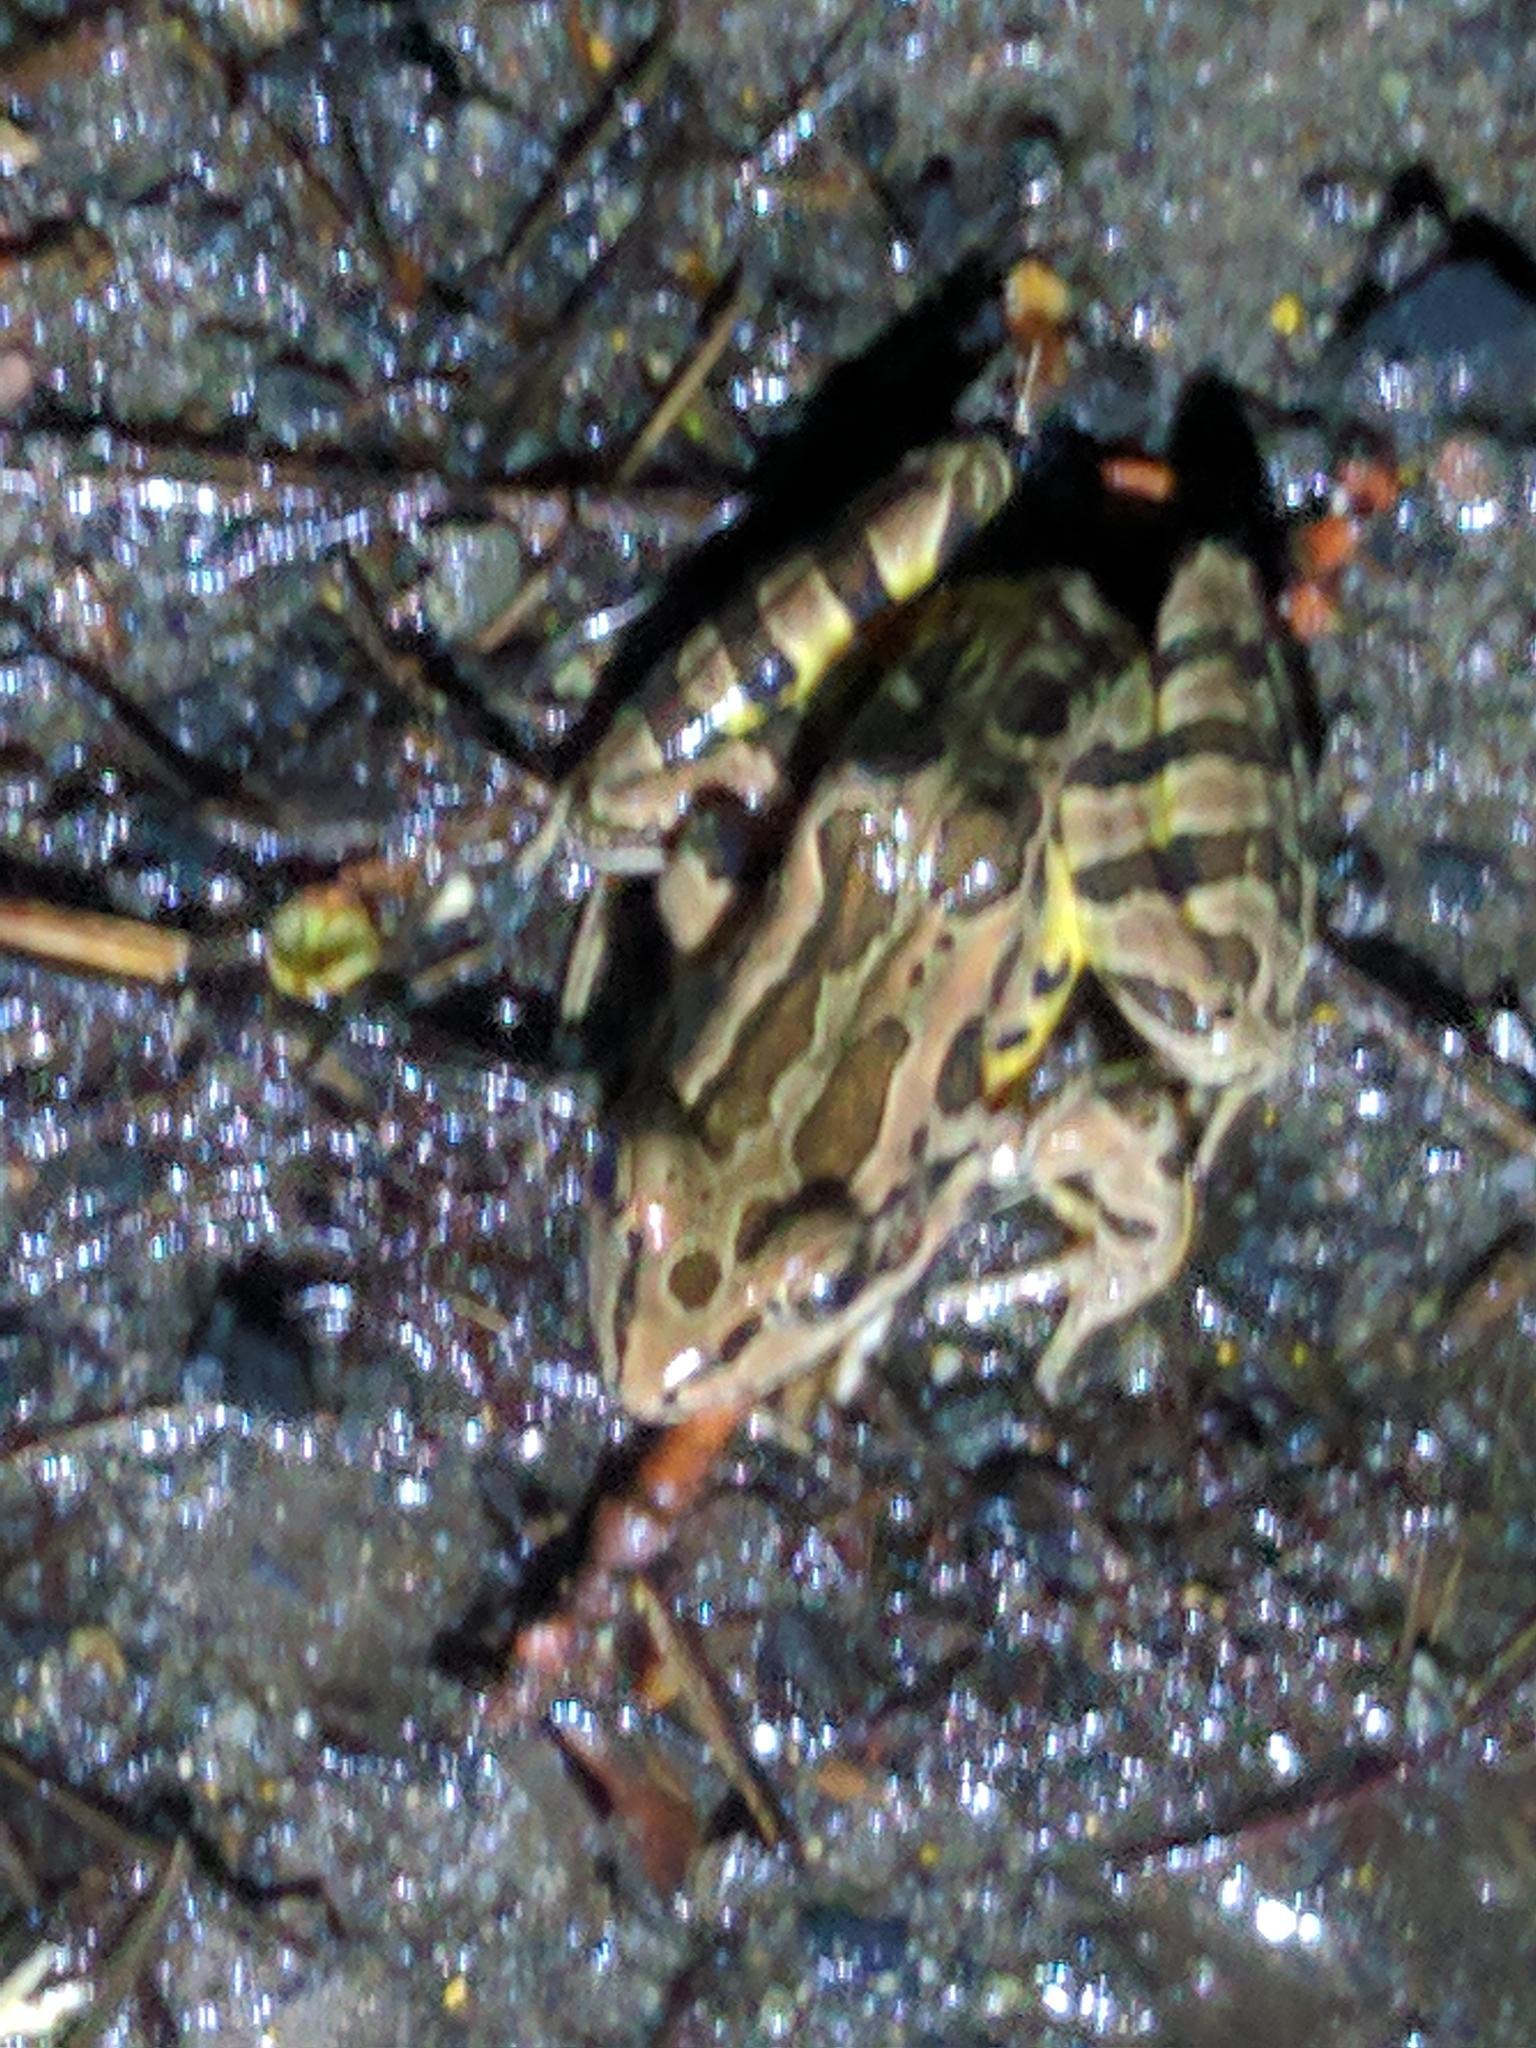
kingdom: Animalia
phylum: Chordata
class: Amphibia
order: Anura
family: Ranidae
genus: Lithobates
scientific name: Lithobates palustris
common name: Pickerel frog
